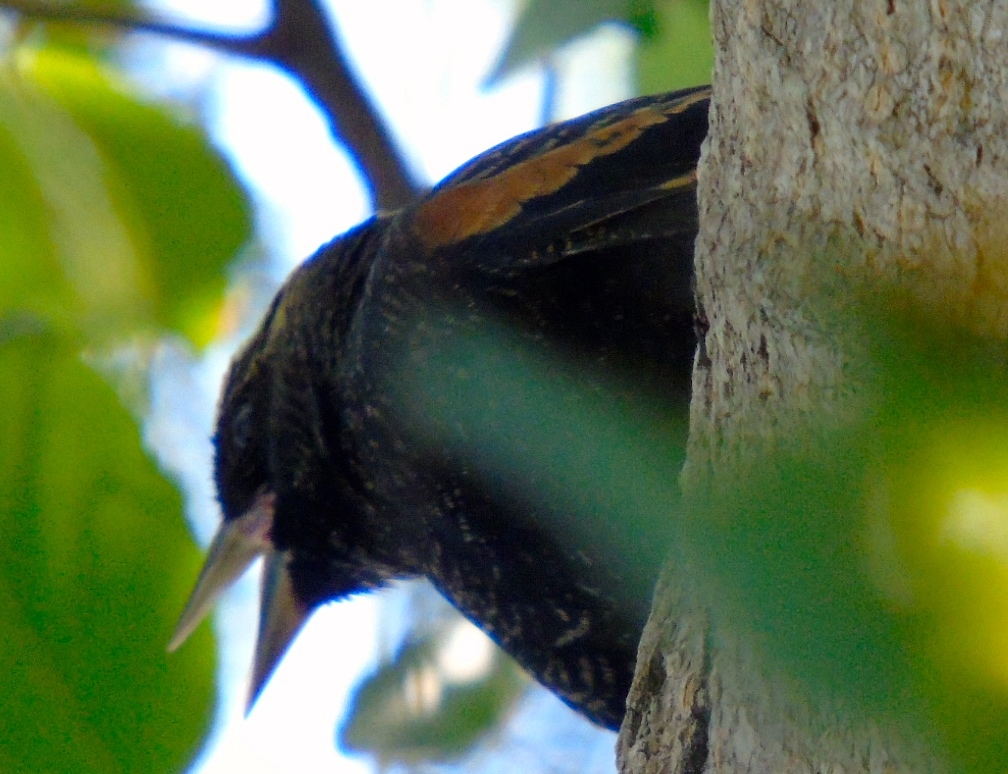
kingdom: Animalia
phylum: Chordata
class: Aves
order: Passeriformes
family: Icteridae
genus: Agelaius
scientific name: Agelaius phoeniceus
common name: Red-winged blackbird
